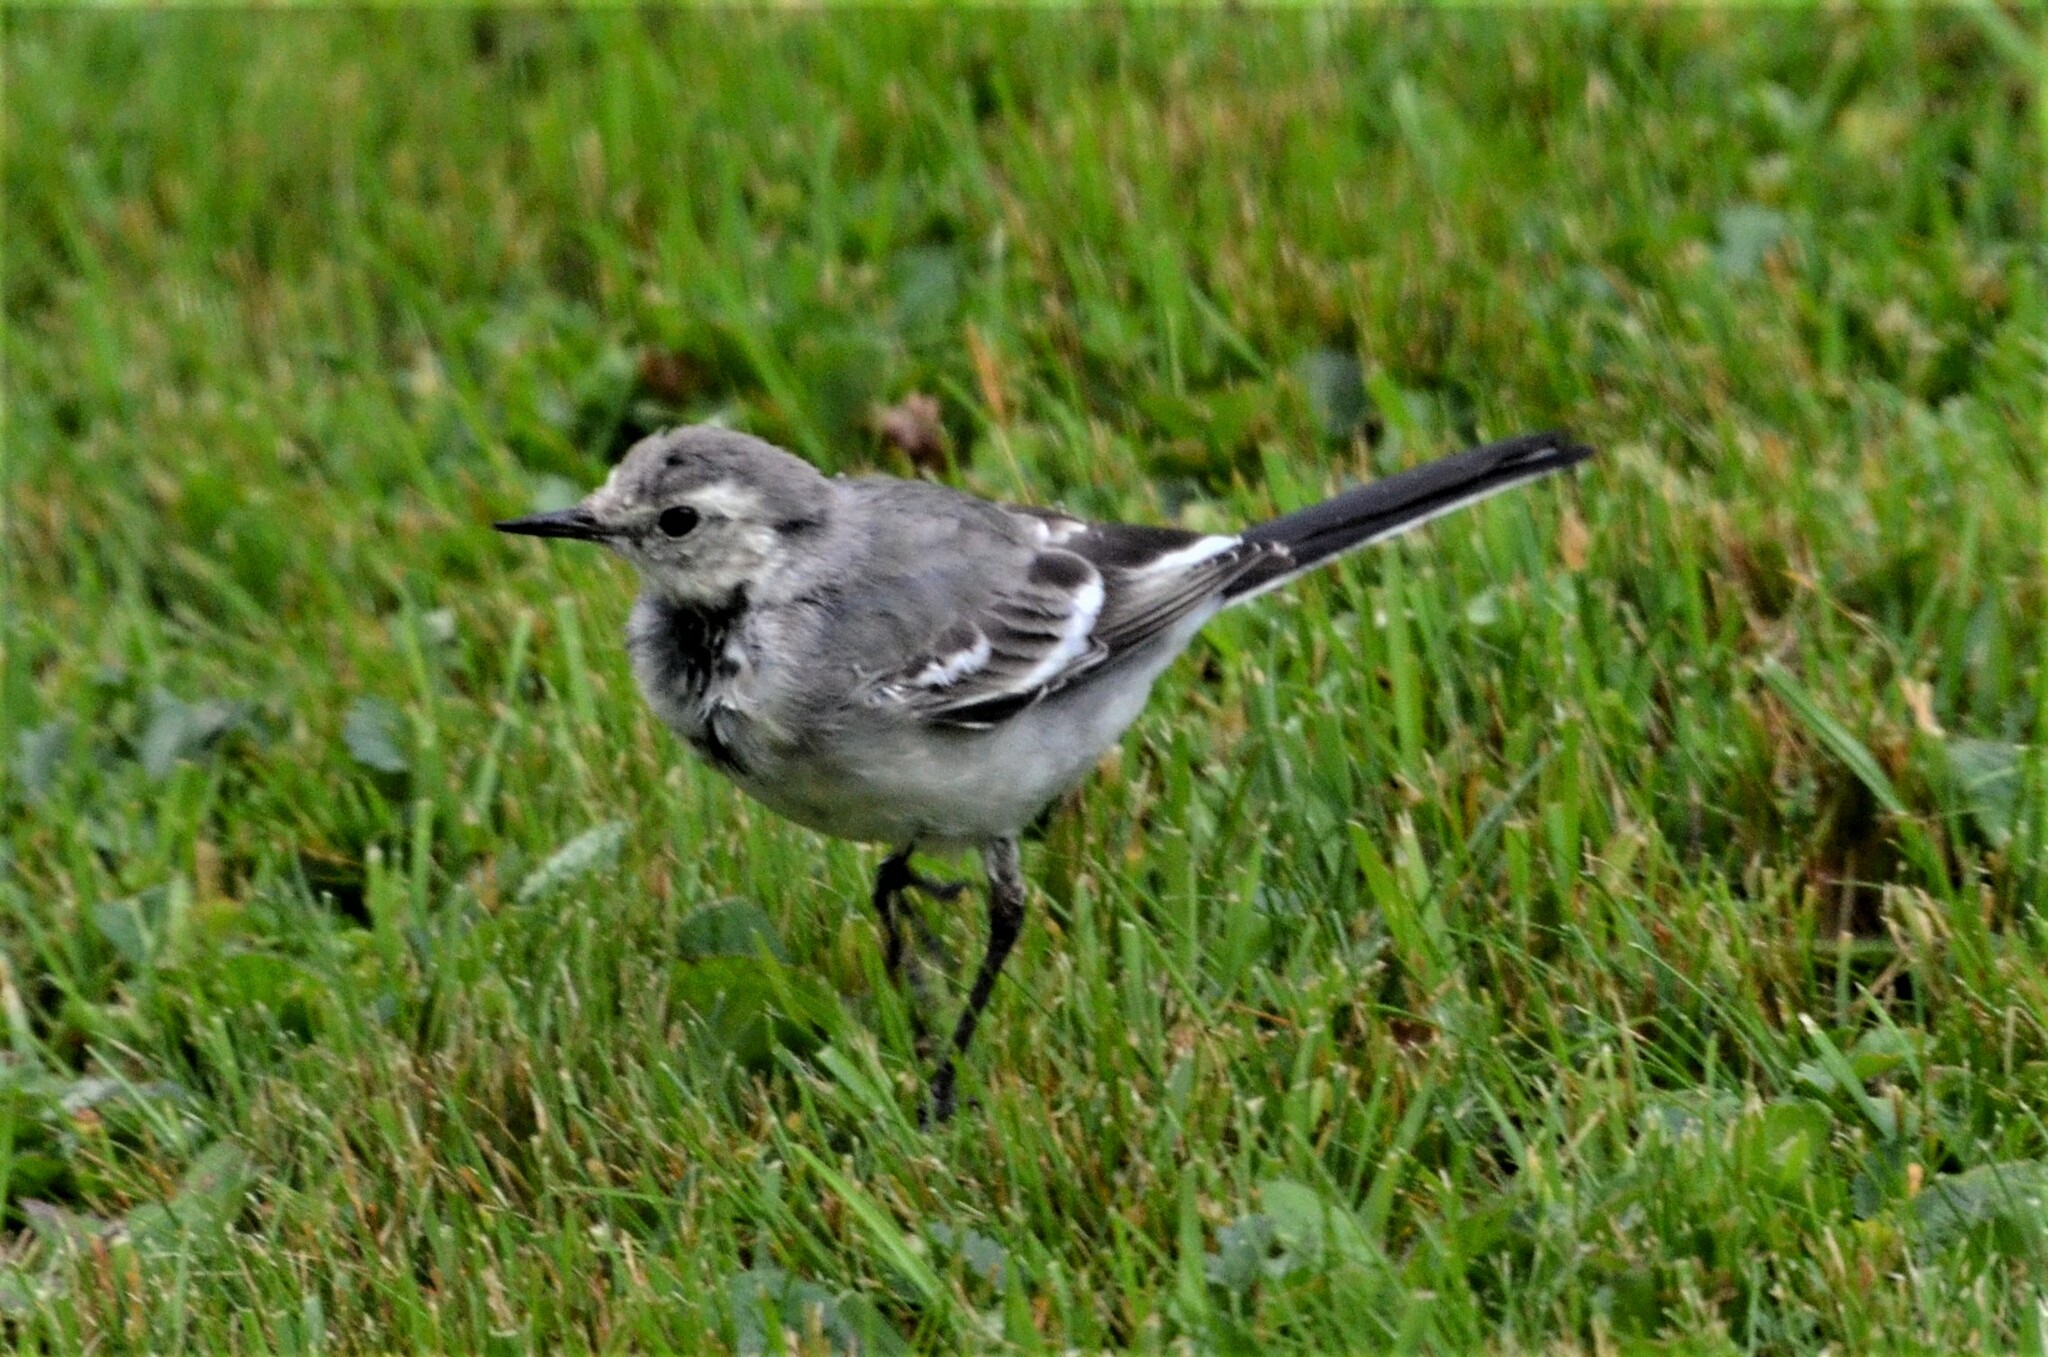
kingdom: Animalia
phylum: Chordata
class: Aves
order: Passeriformes
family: Motacillidae
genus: Motacilla
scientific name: Motacilla alba
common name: White wagtail
